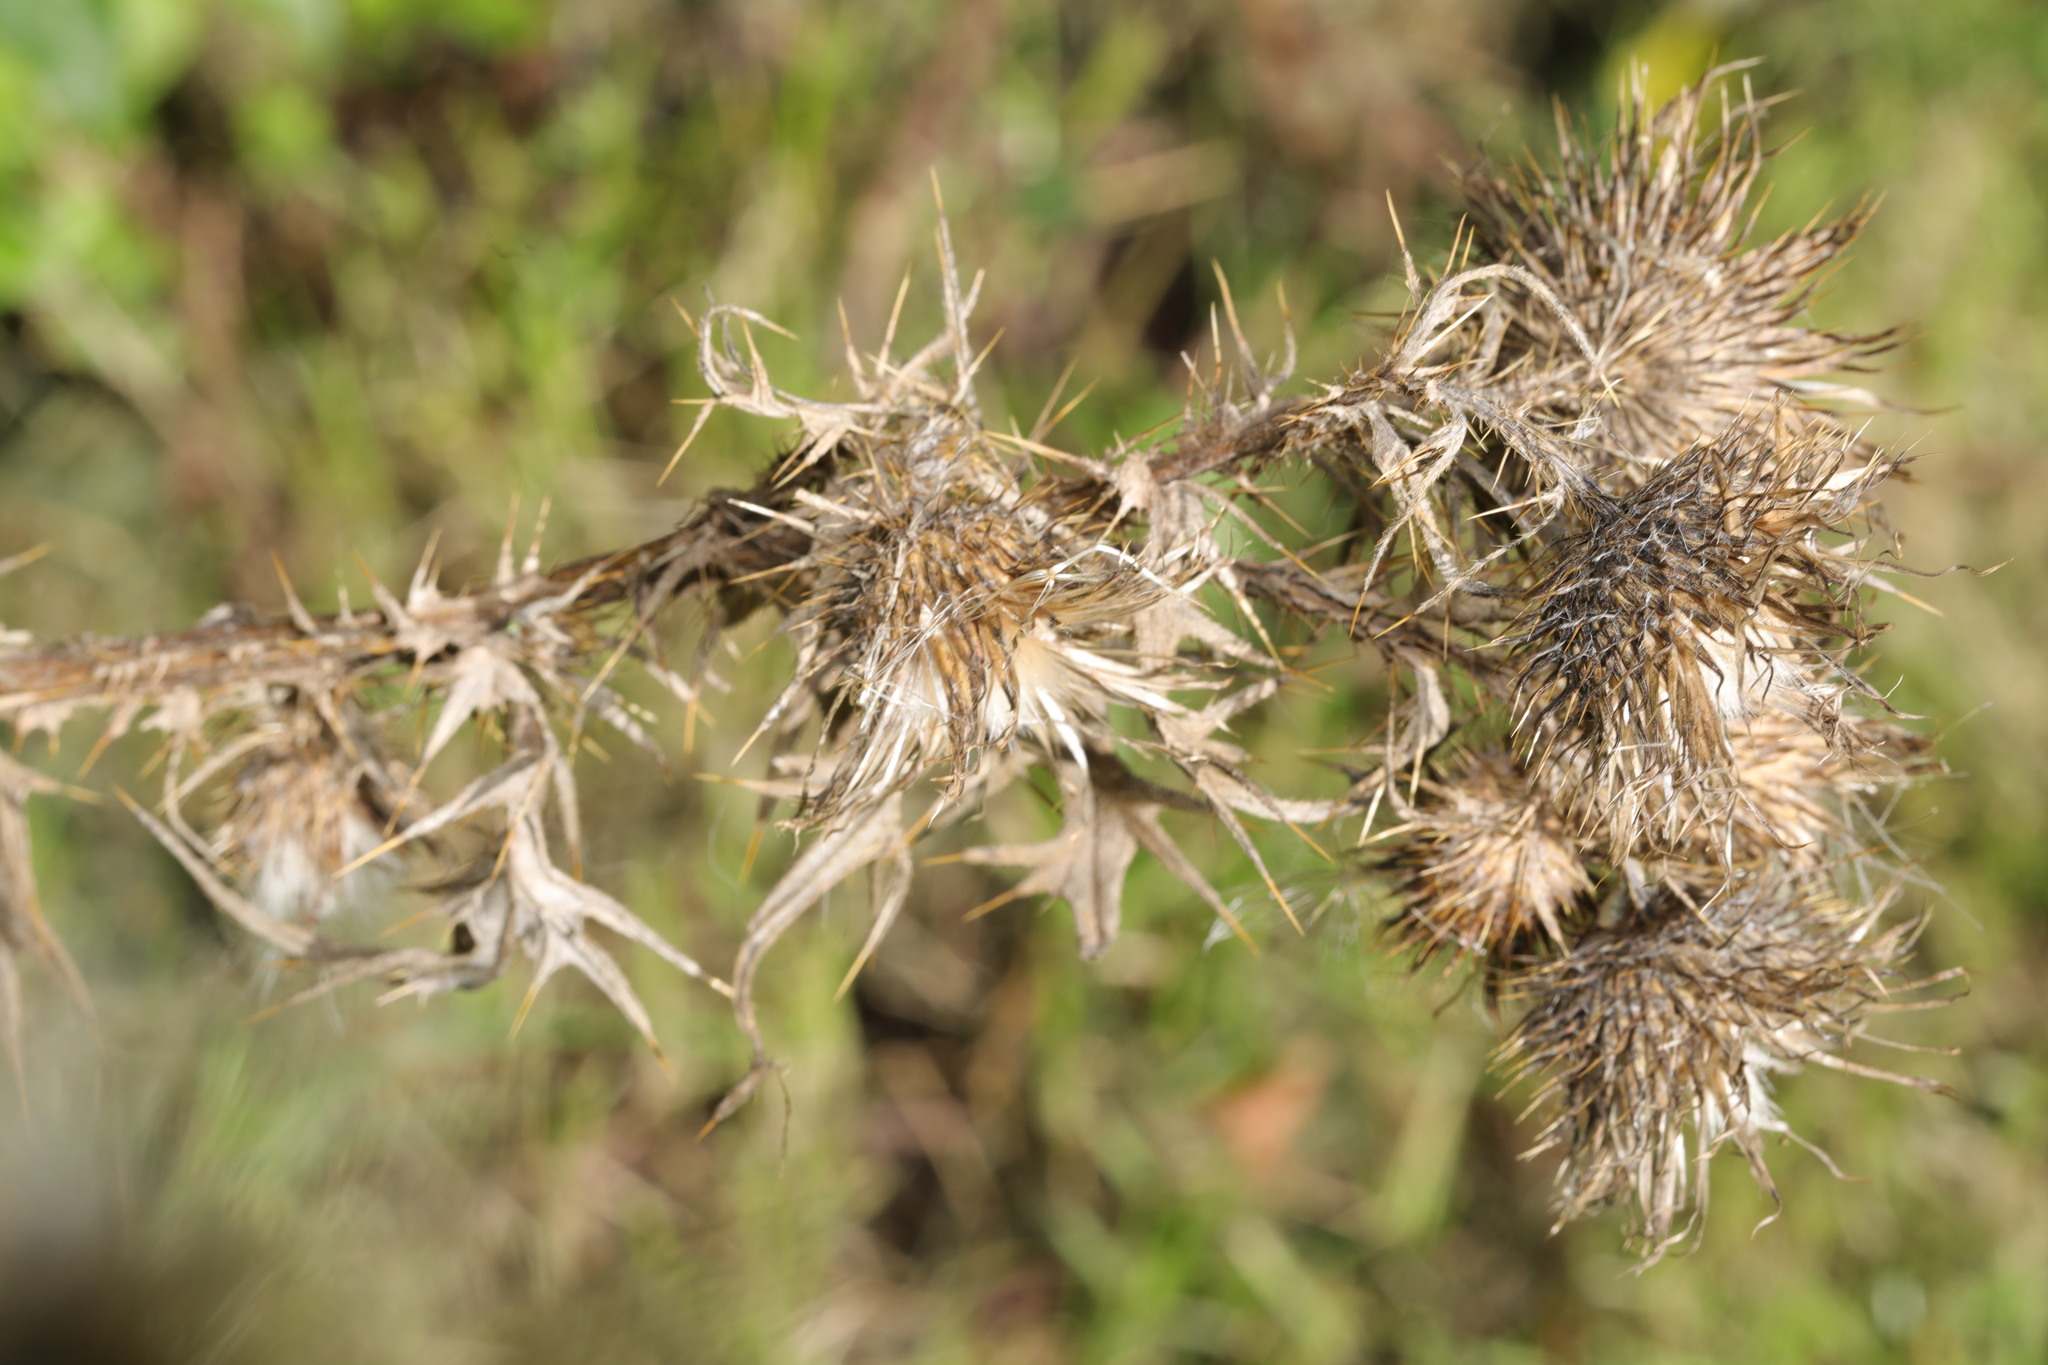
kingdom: Plantae
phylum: Tracheophyta
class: Magnoliopsida
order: Asterales
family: Asteraceae
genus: Cirsium
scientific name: Cirsium vulgare
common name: Bull thistle
